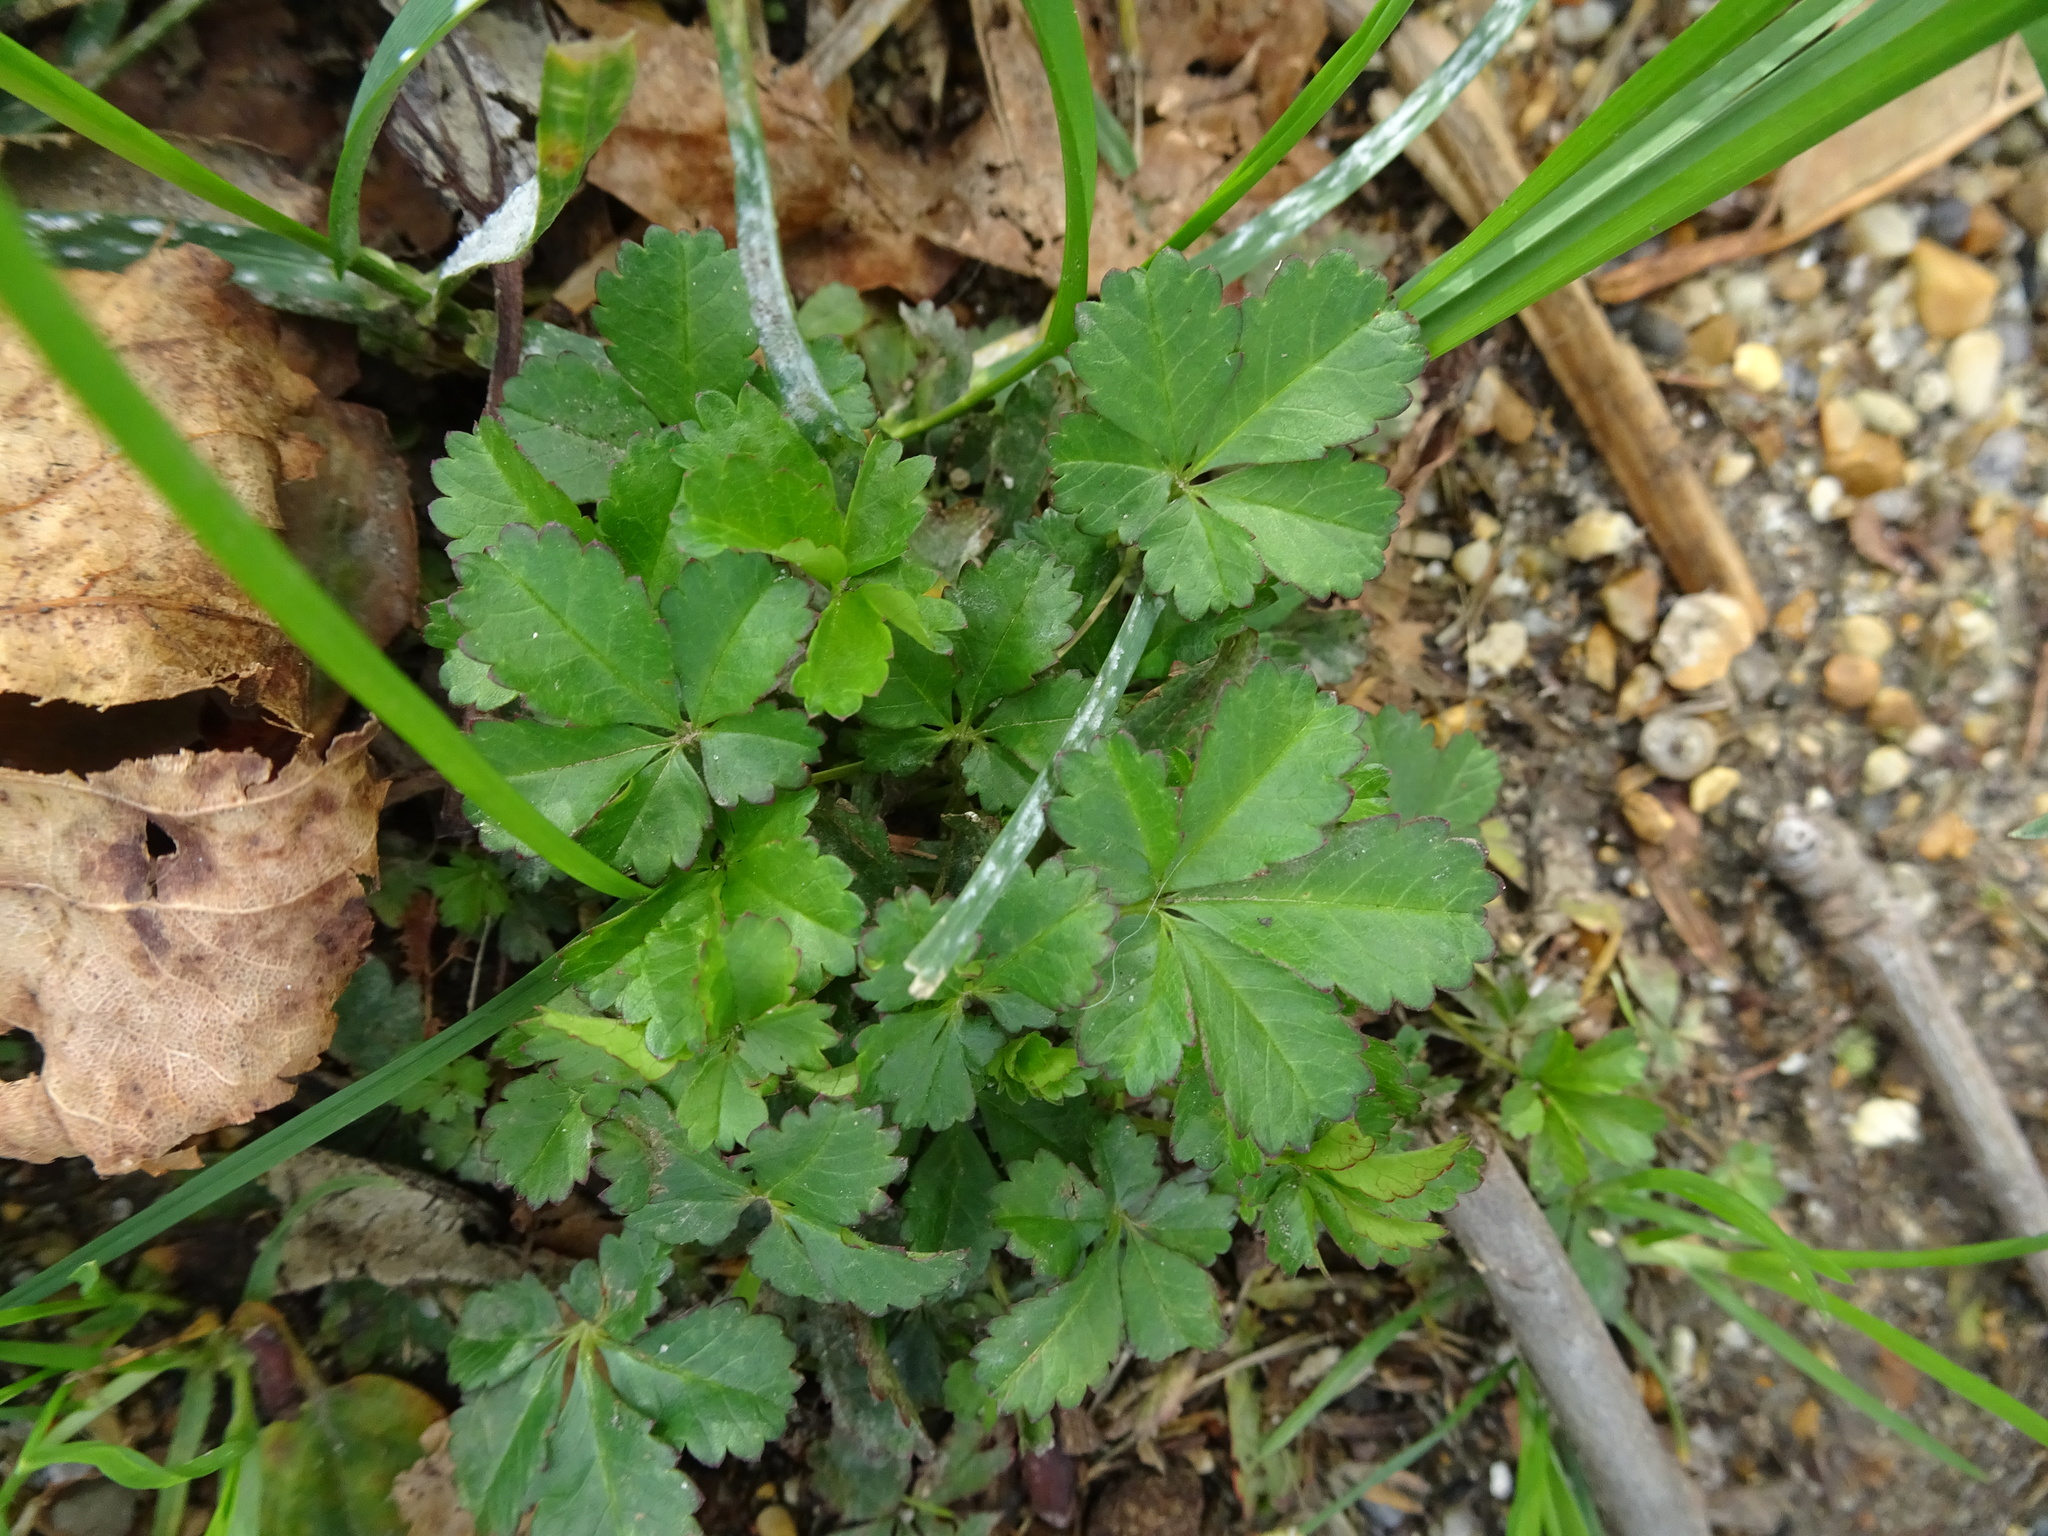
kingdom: Plantae
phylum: Tracheophyta
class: Magnoliopsida
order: Rosales
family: Rosaceae
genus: Potentilla
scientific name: Potentilla reptans
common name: Creeping cinquefoil
